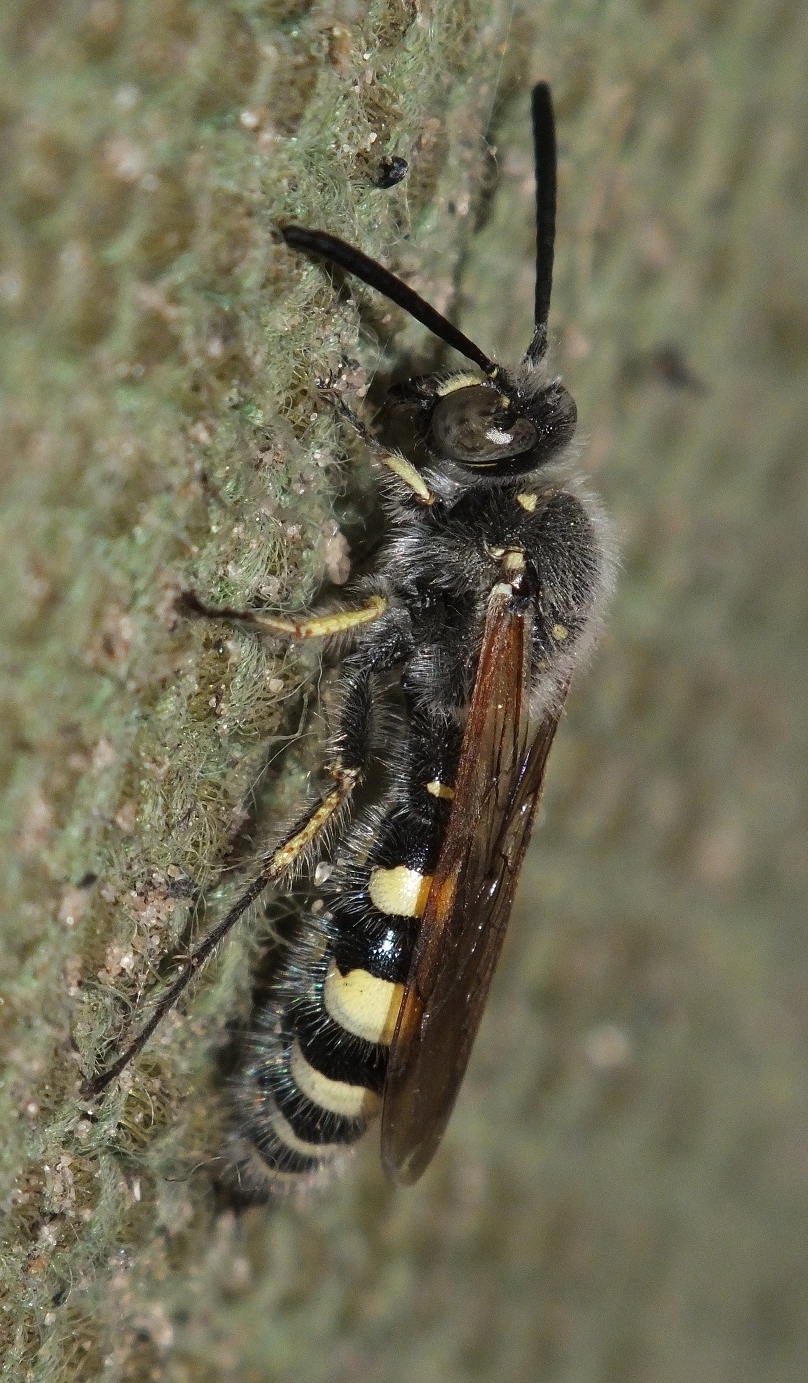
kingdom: Animalia
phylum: Arthropoda
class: Insecta
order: Hymenoptera
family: Vespidae
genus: Vespa
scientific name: Vespa sexmaculata
